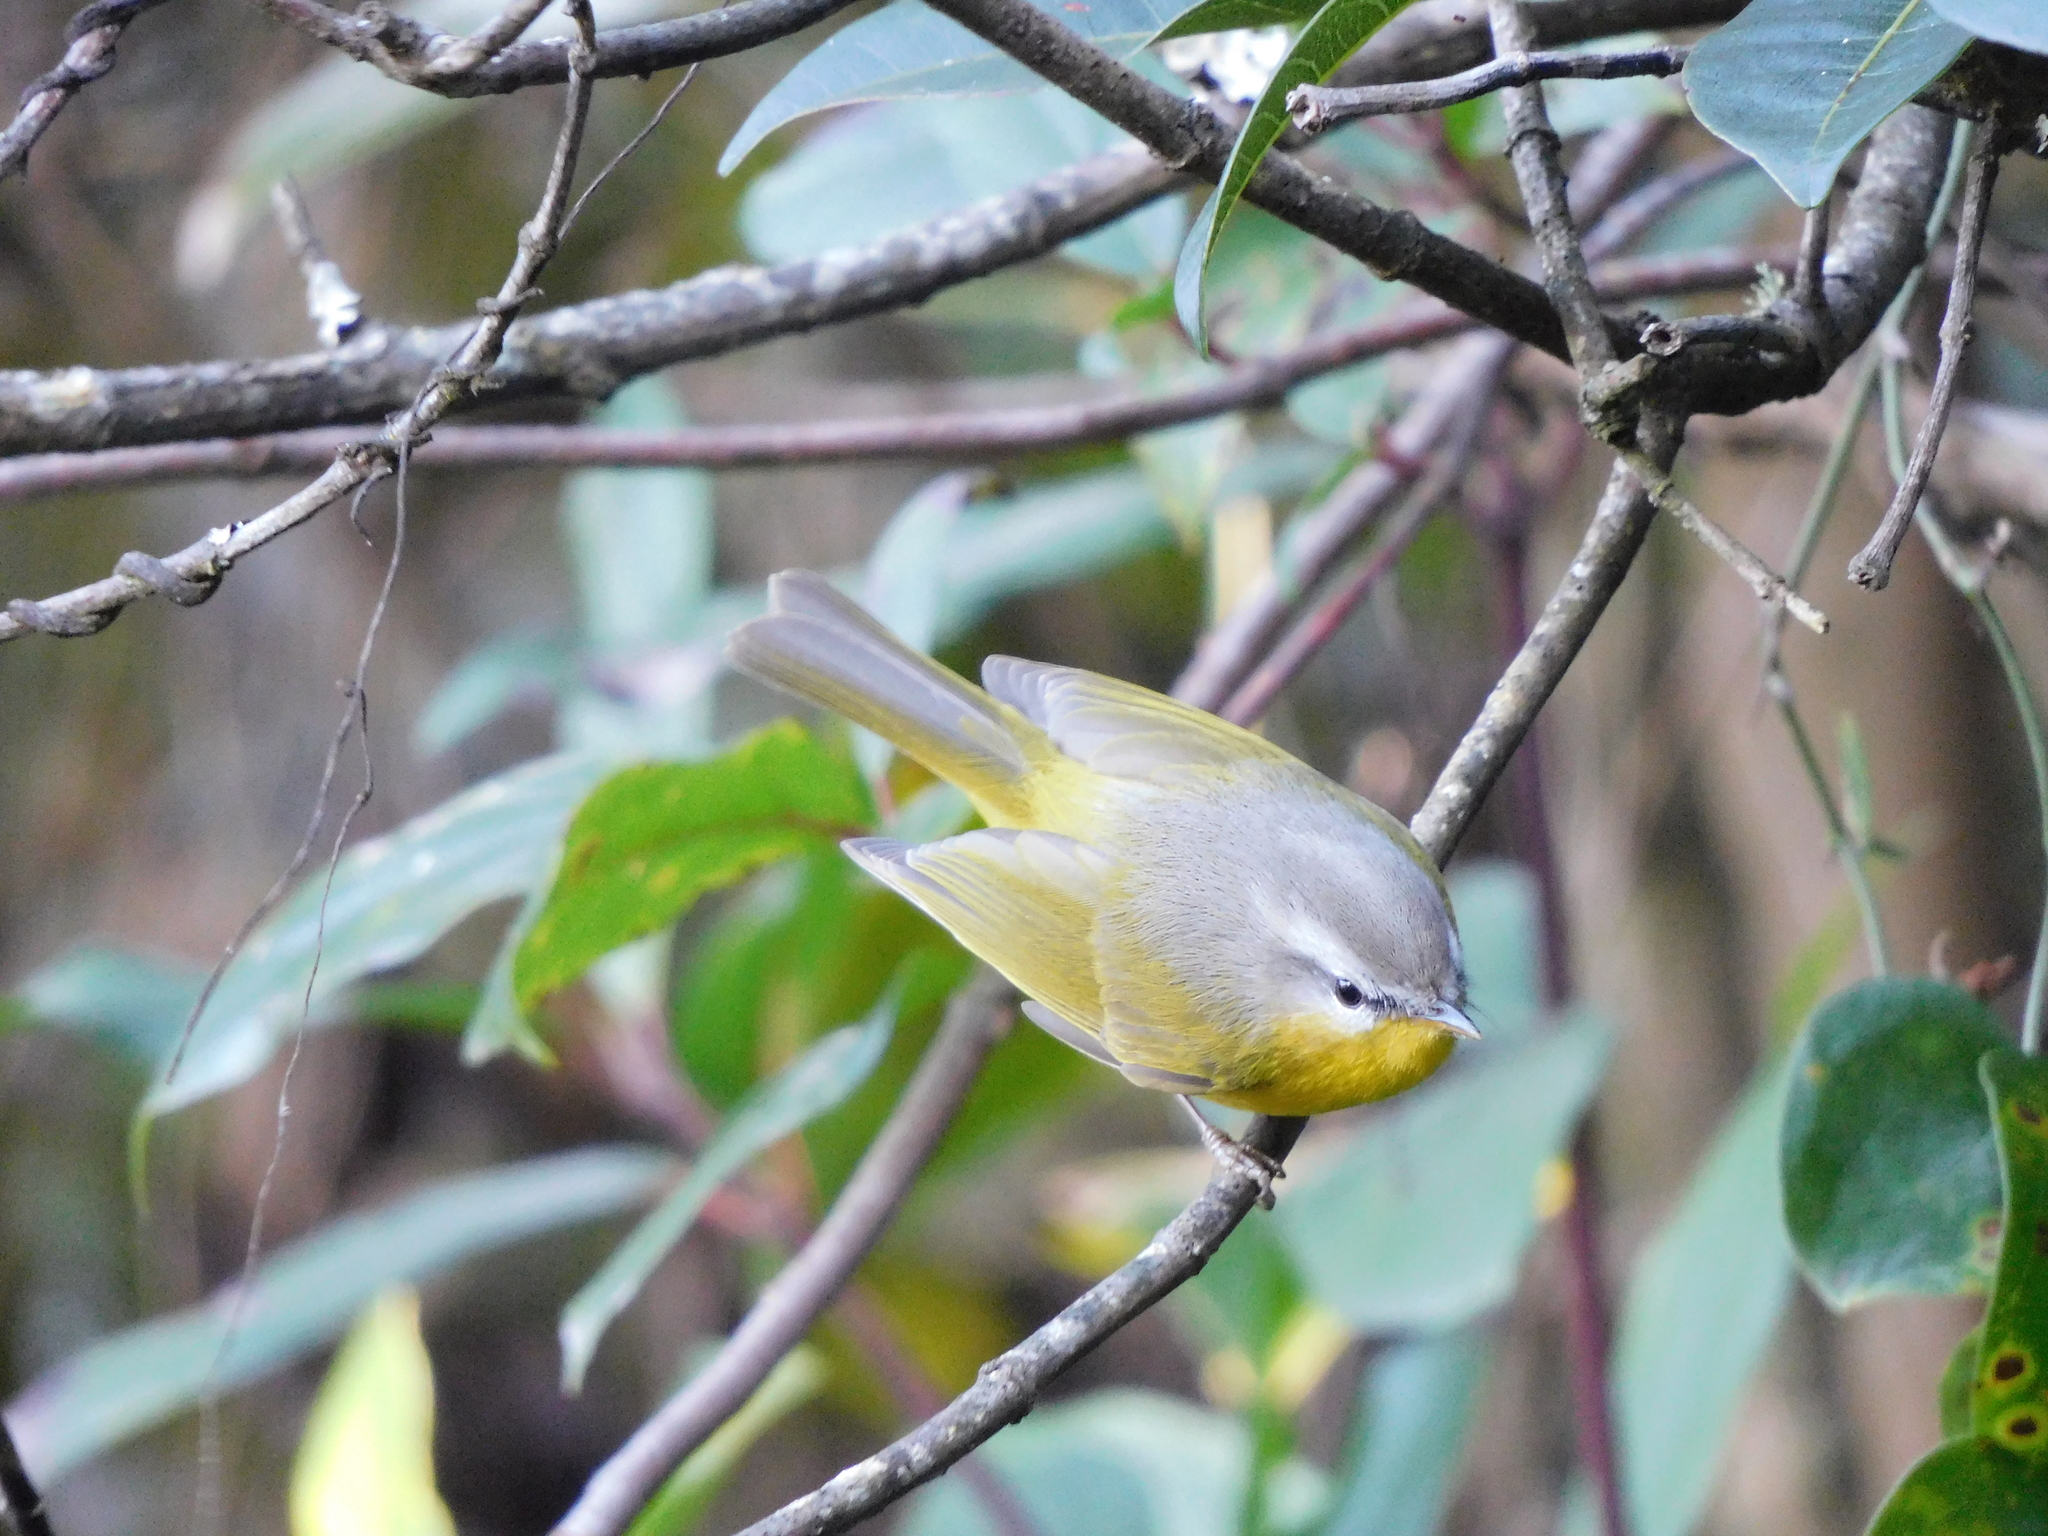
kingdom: Animalia
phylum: Chordata
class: Aves
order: Passeriformes
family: Phylloscopidae
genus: Phylloscopus
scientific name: Phylloscopus xanthoschistos
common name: Grey-hooded warbler
